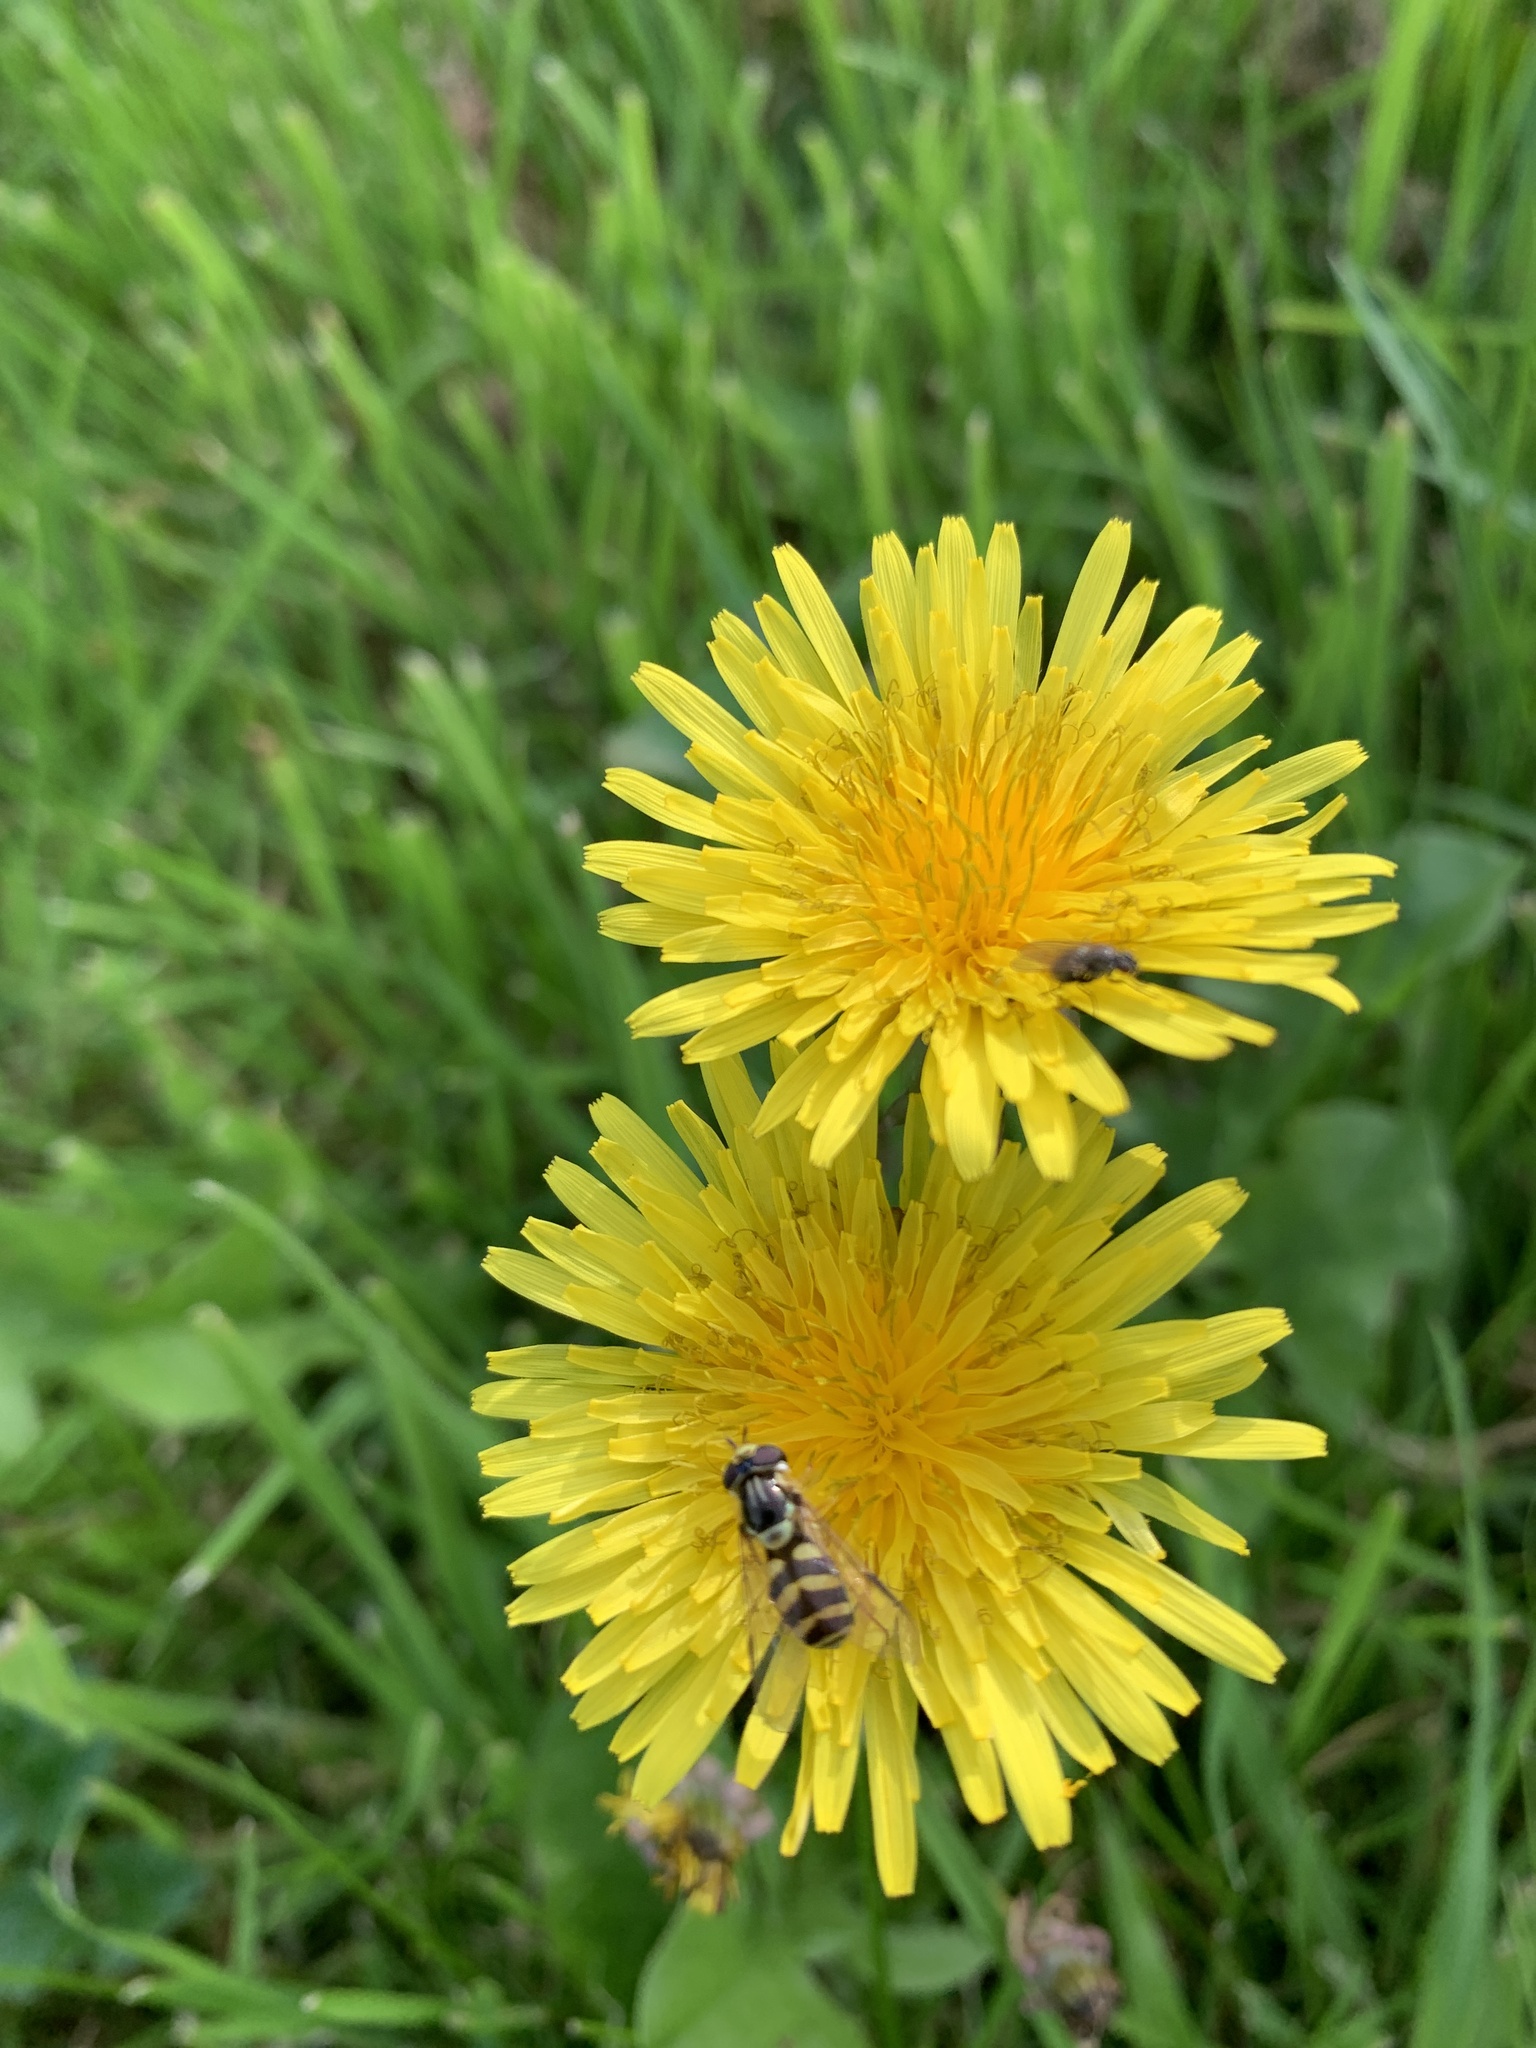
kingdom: Animalia
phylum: Arthropoda
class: Insecta
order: Diptera
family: Syrphidae
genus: Dasysyrphus
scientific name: Dasysyrphus albostriatus
